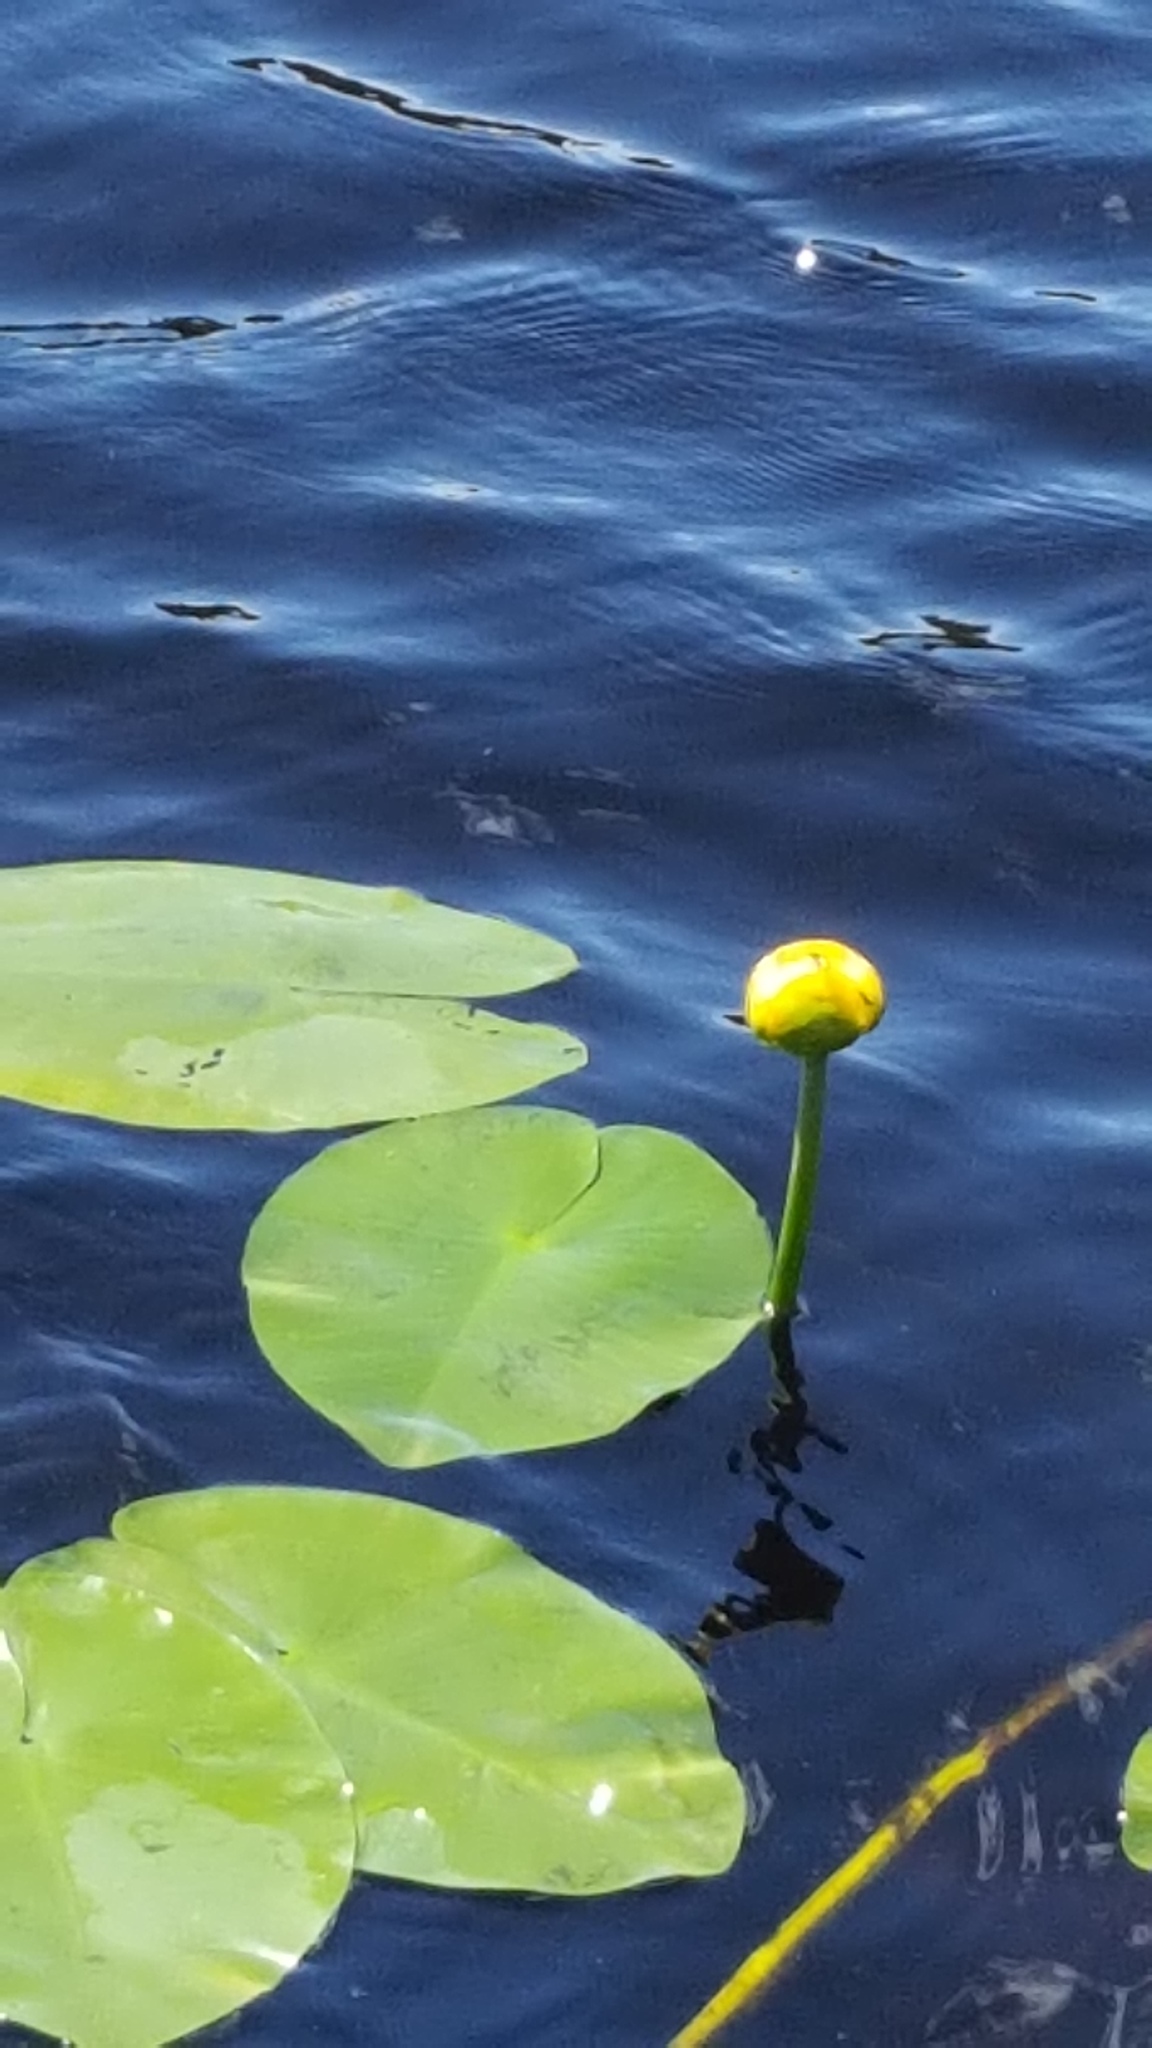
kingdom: Plantae
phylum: Tracheophyta
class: Magnoliopsida
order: Nymphaeales
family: Nymphaeaceae
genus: Nuphar
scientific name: Nuphar variegata
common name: Beaver-root
